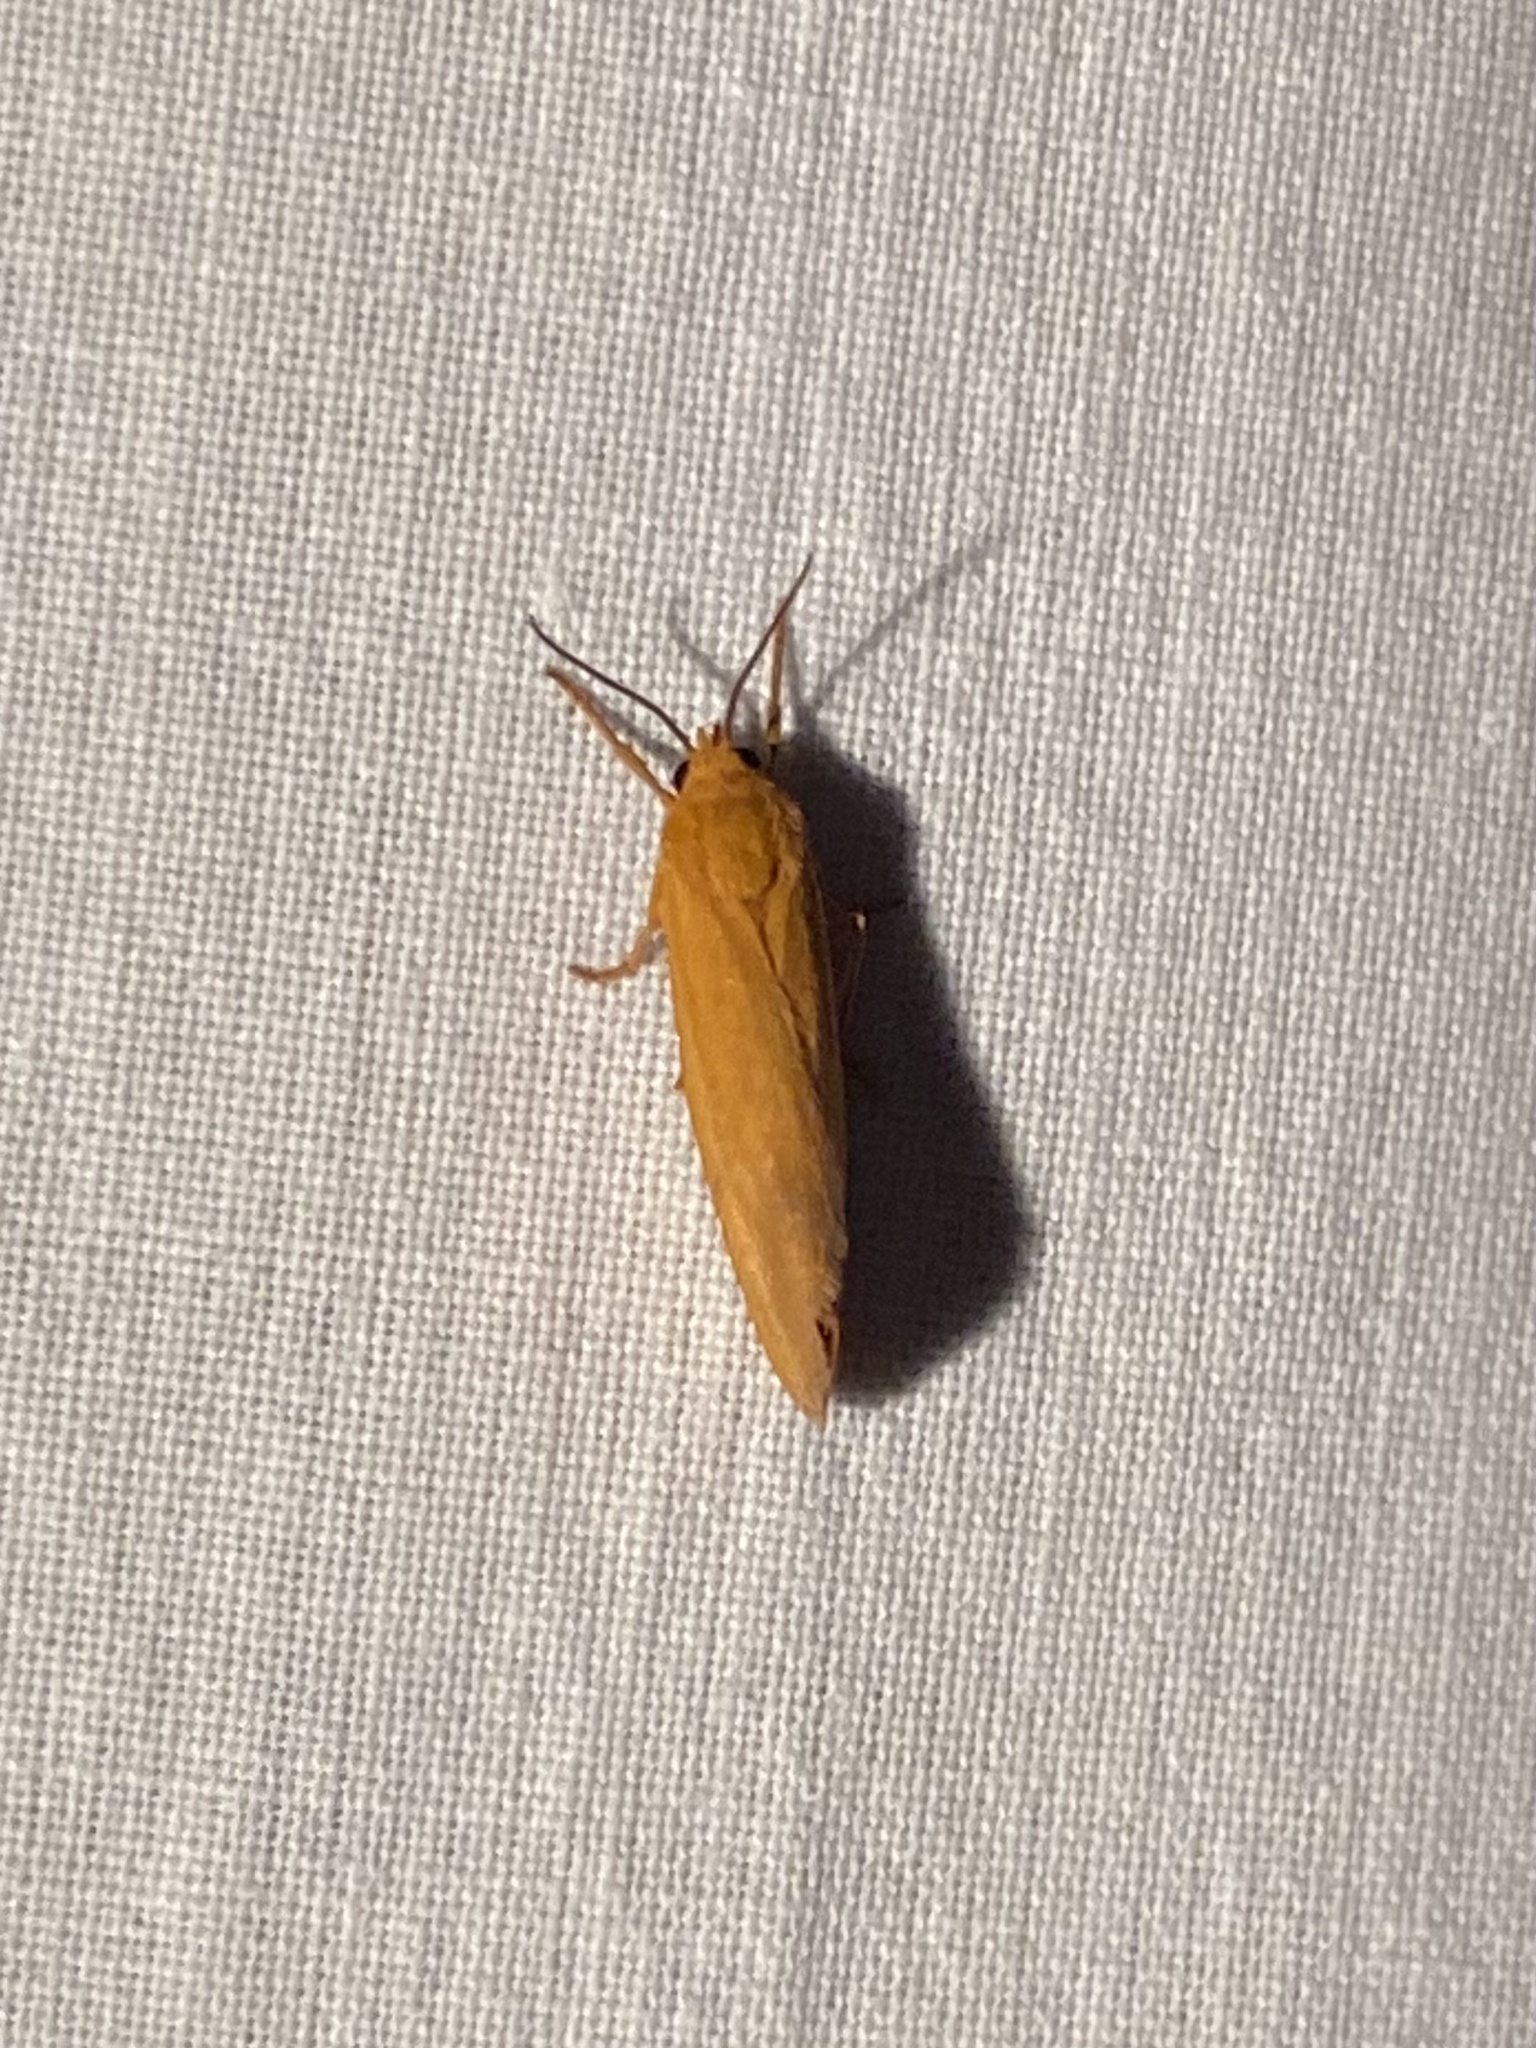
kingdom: Animalia
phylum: Arthropoda
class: Insecta
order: Lepidoptera
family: Erebidae
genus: Virbia
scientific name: Virbia aurantiaca
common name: Orange virbia moth
